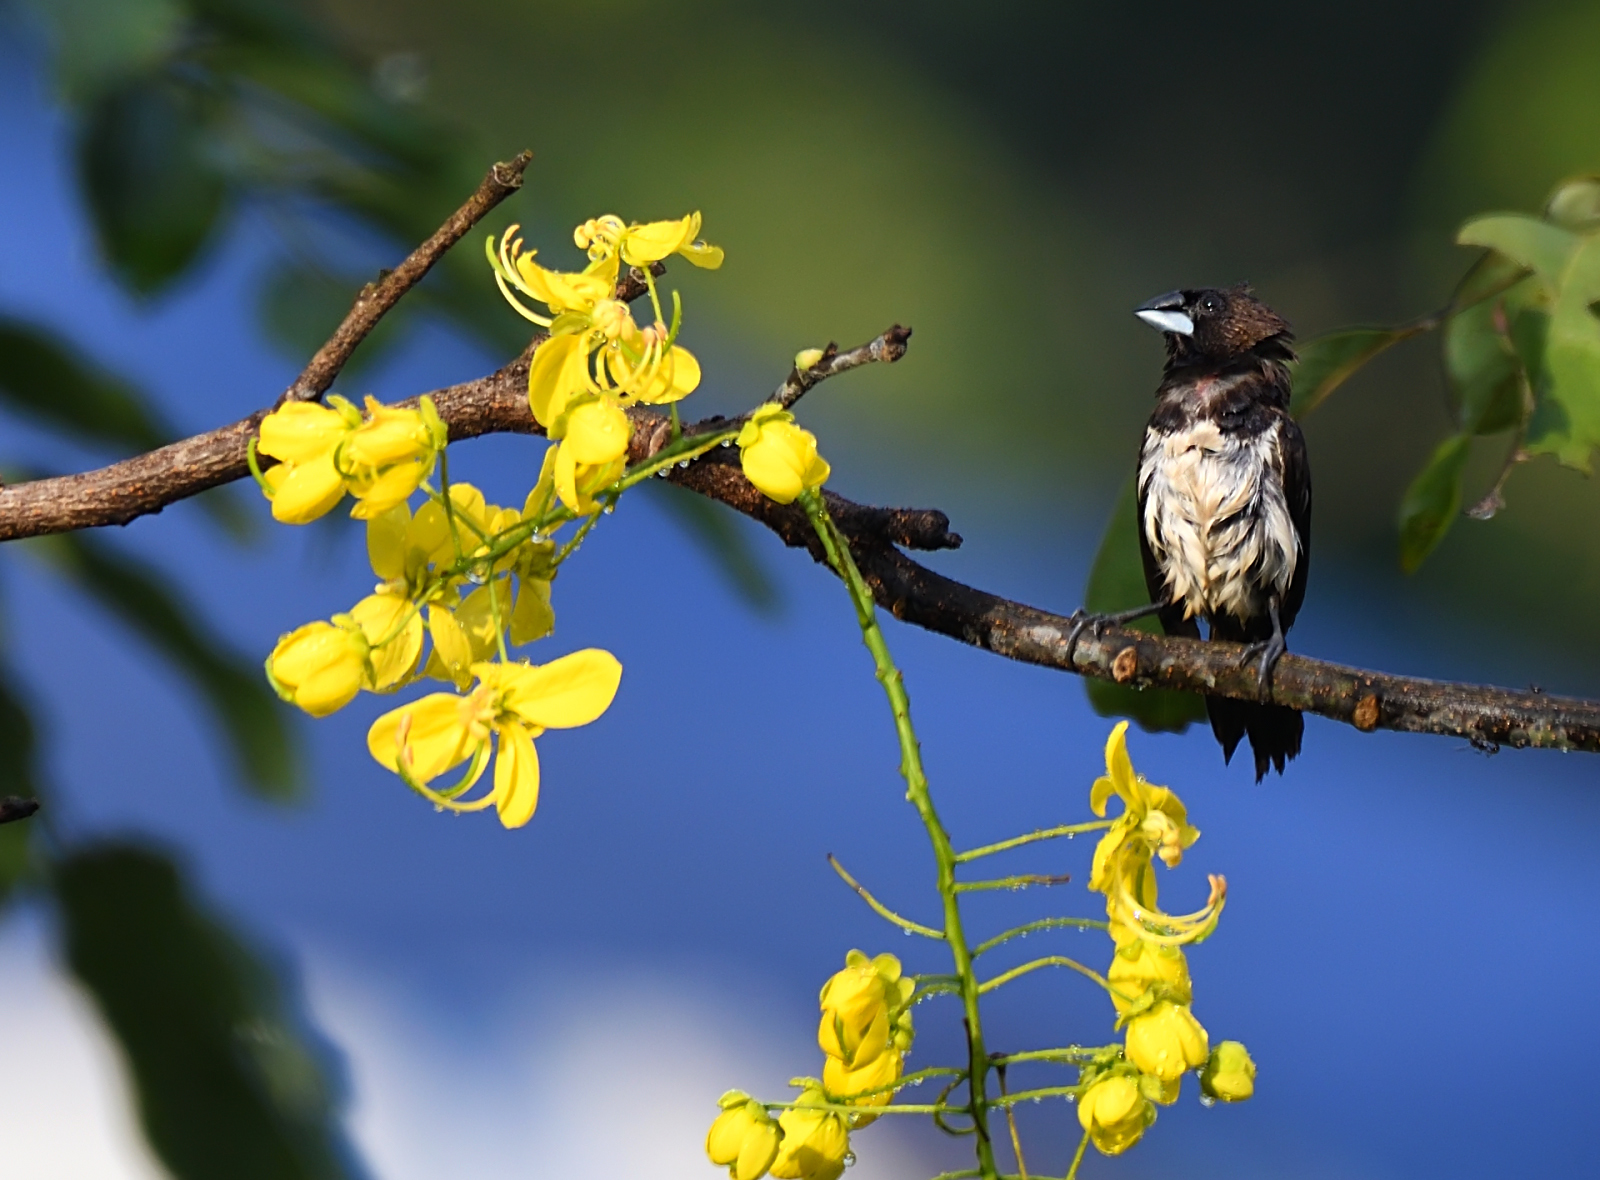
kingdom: Animalia
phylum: Chordata
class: Aves
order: Passeriformes
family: Estrildidae
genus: Lonchura
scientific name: Lonchura striata
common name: White-rumped munia
